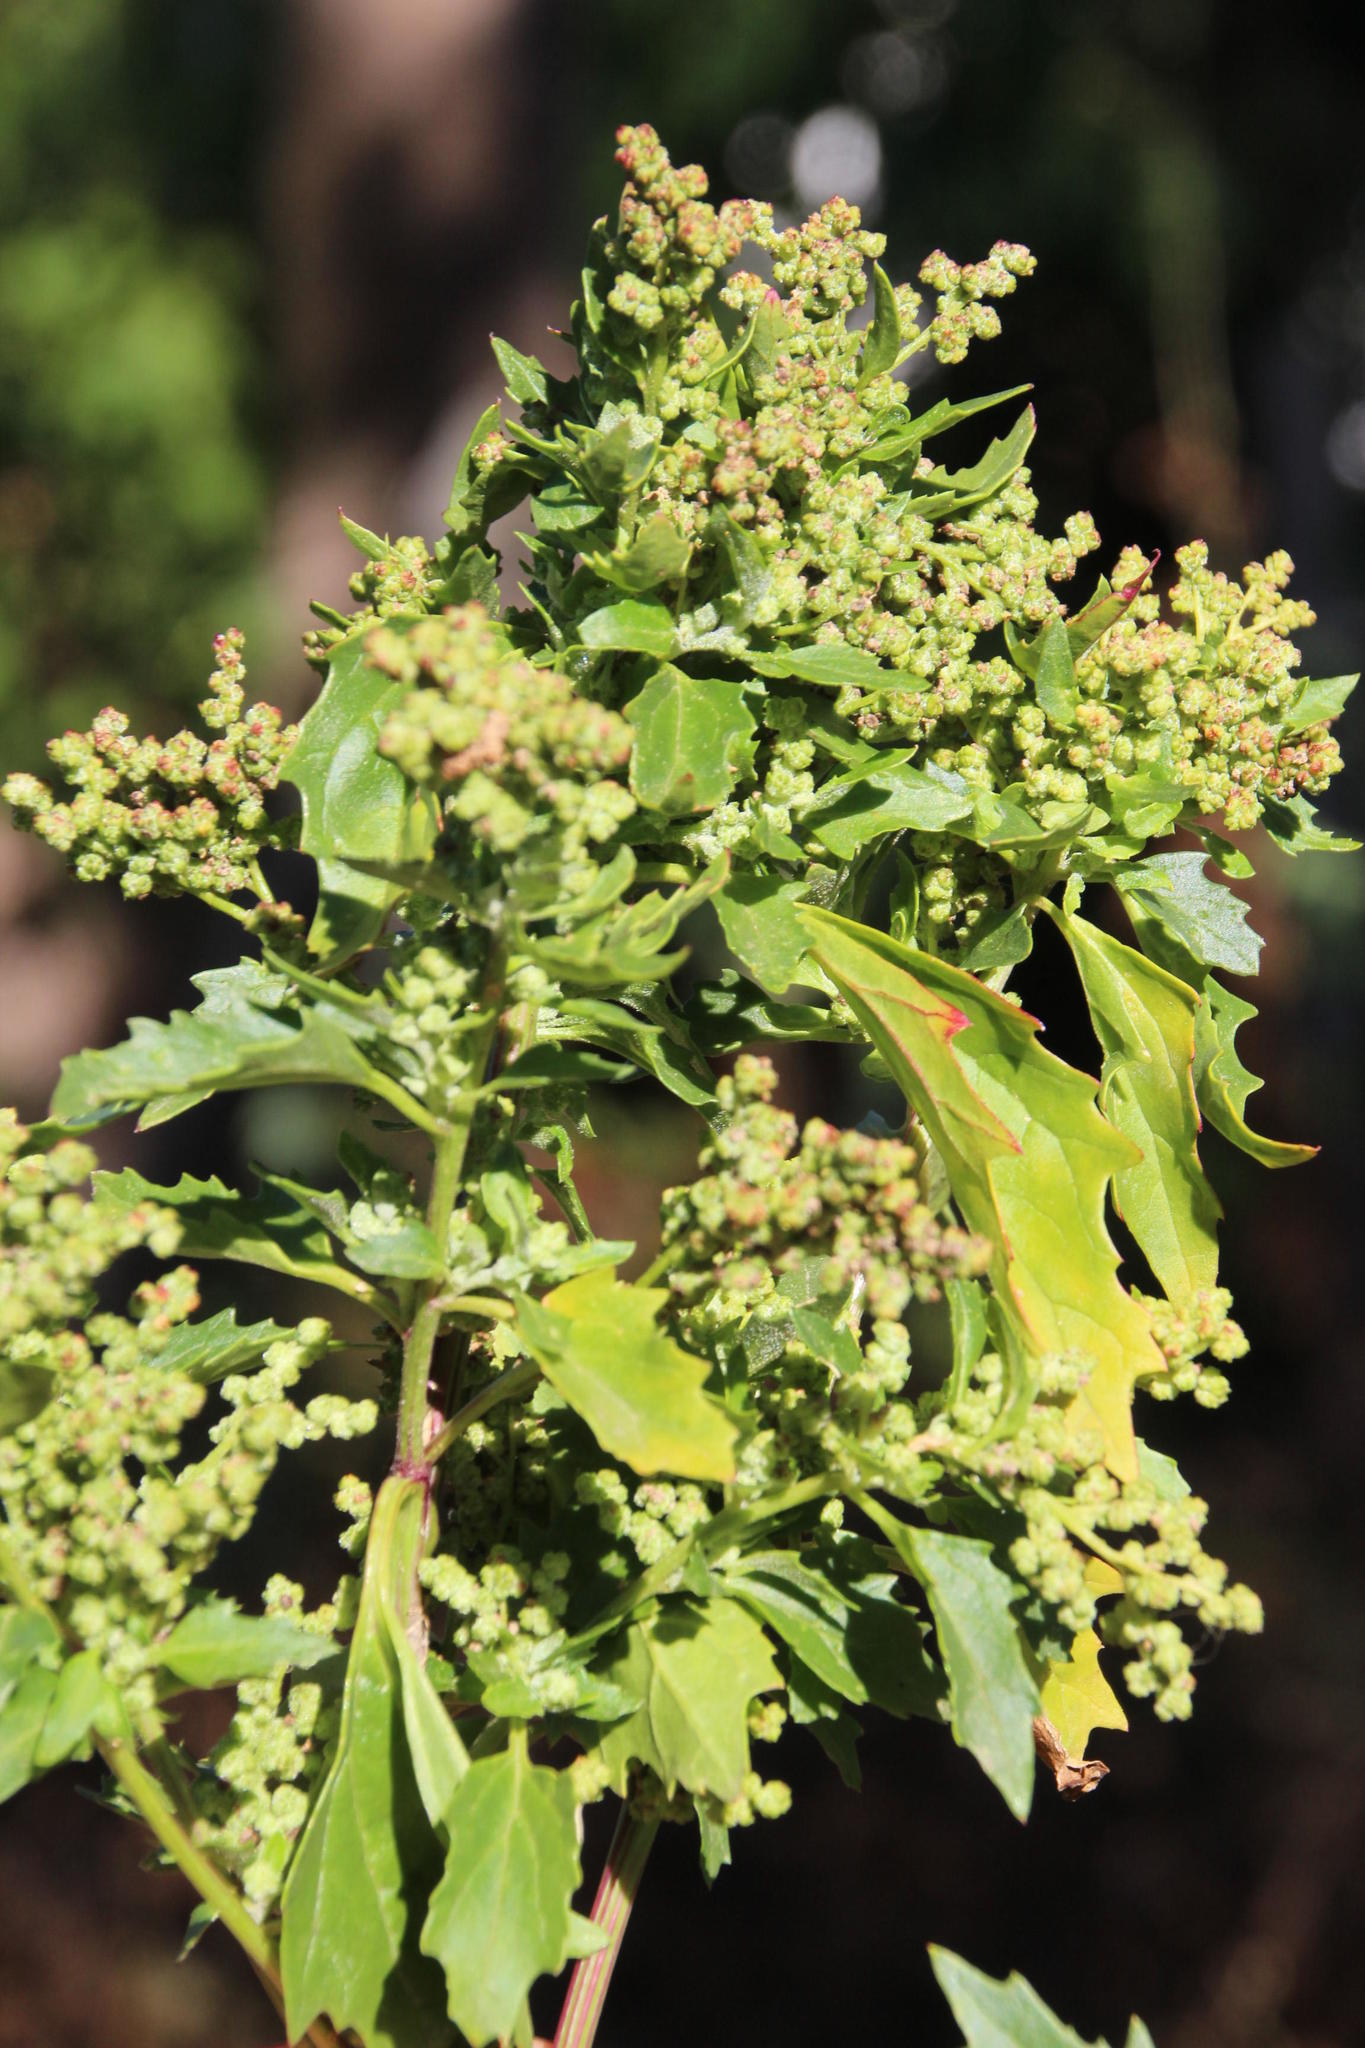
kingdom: Plantae
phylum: Tracheophyta
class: Magnoliopsida
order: Caryophyllales
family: Amaranthaceae
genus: Chenopodiastrum
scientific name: Chenopodiastrum murale
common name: Sowbane
